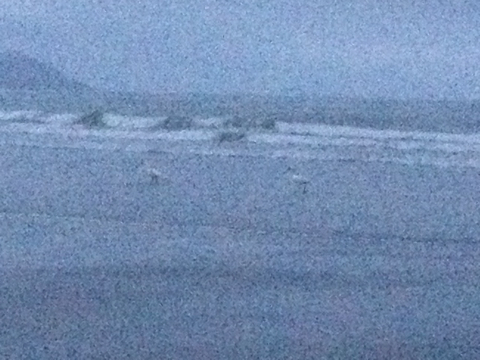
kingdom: Animalia
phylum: Chordata
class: Aves
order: Pelecaniformes
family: Threskiornithidae
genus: Platalea
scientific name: Platalea regia
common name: Royal spoonbill
